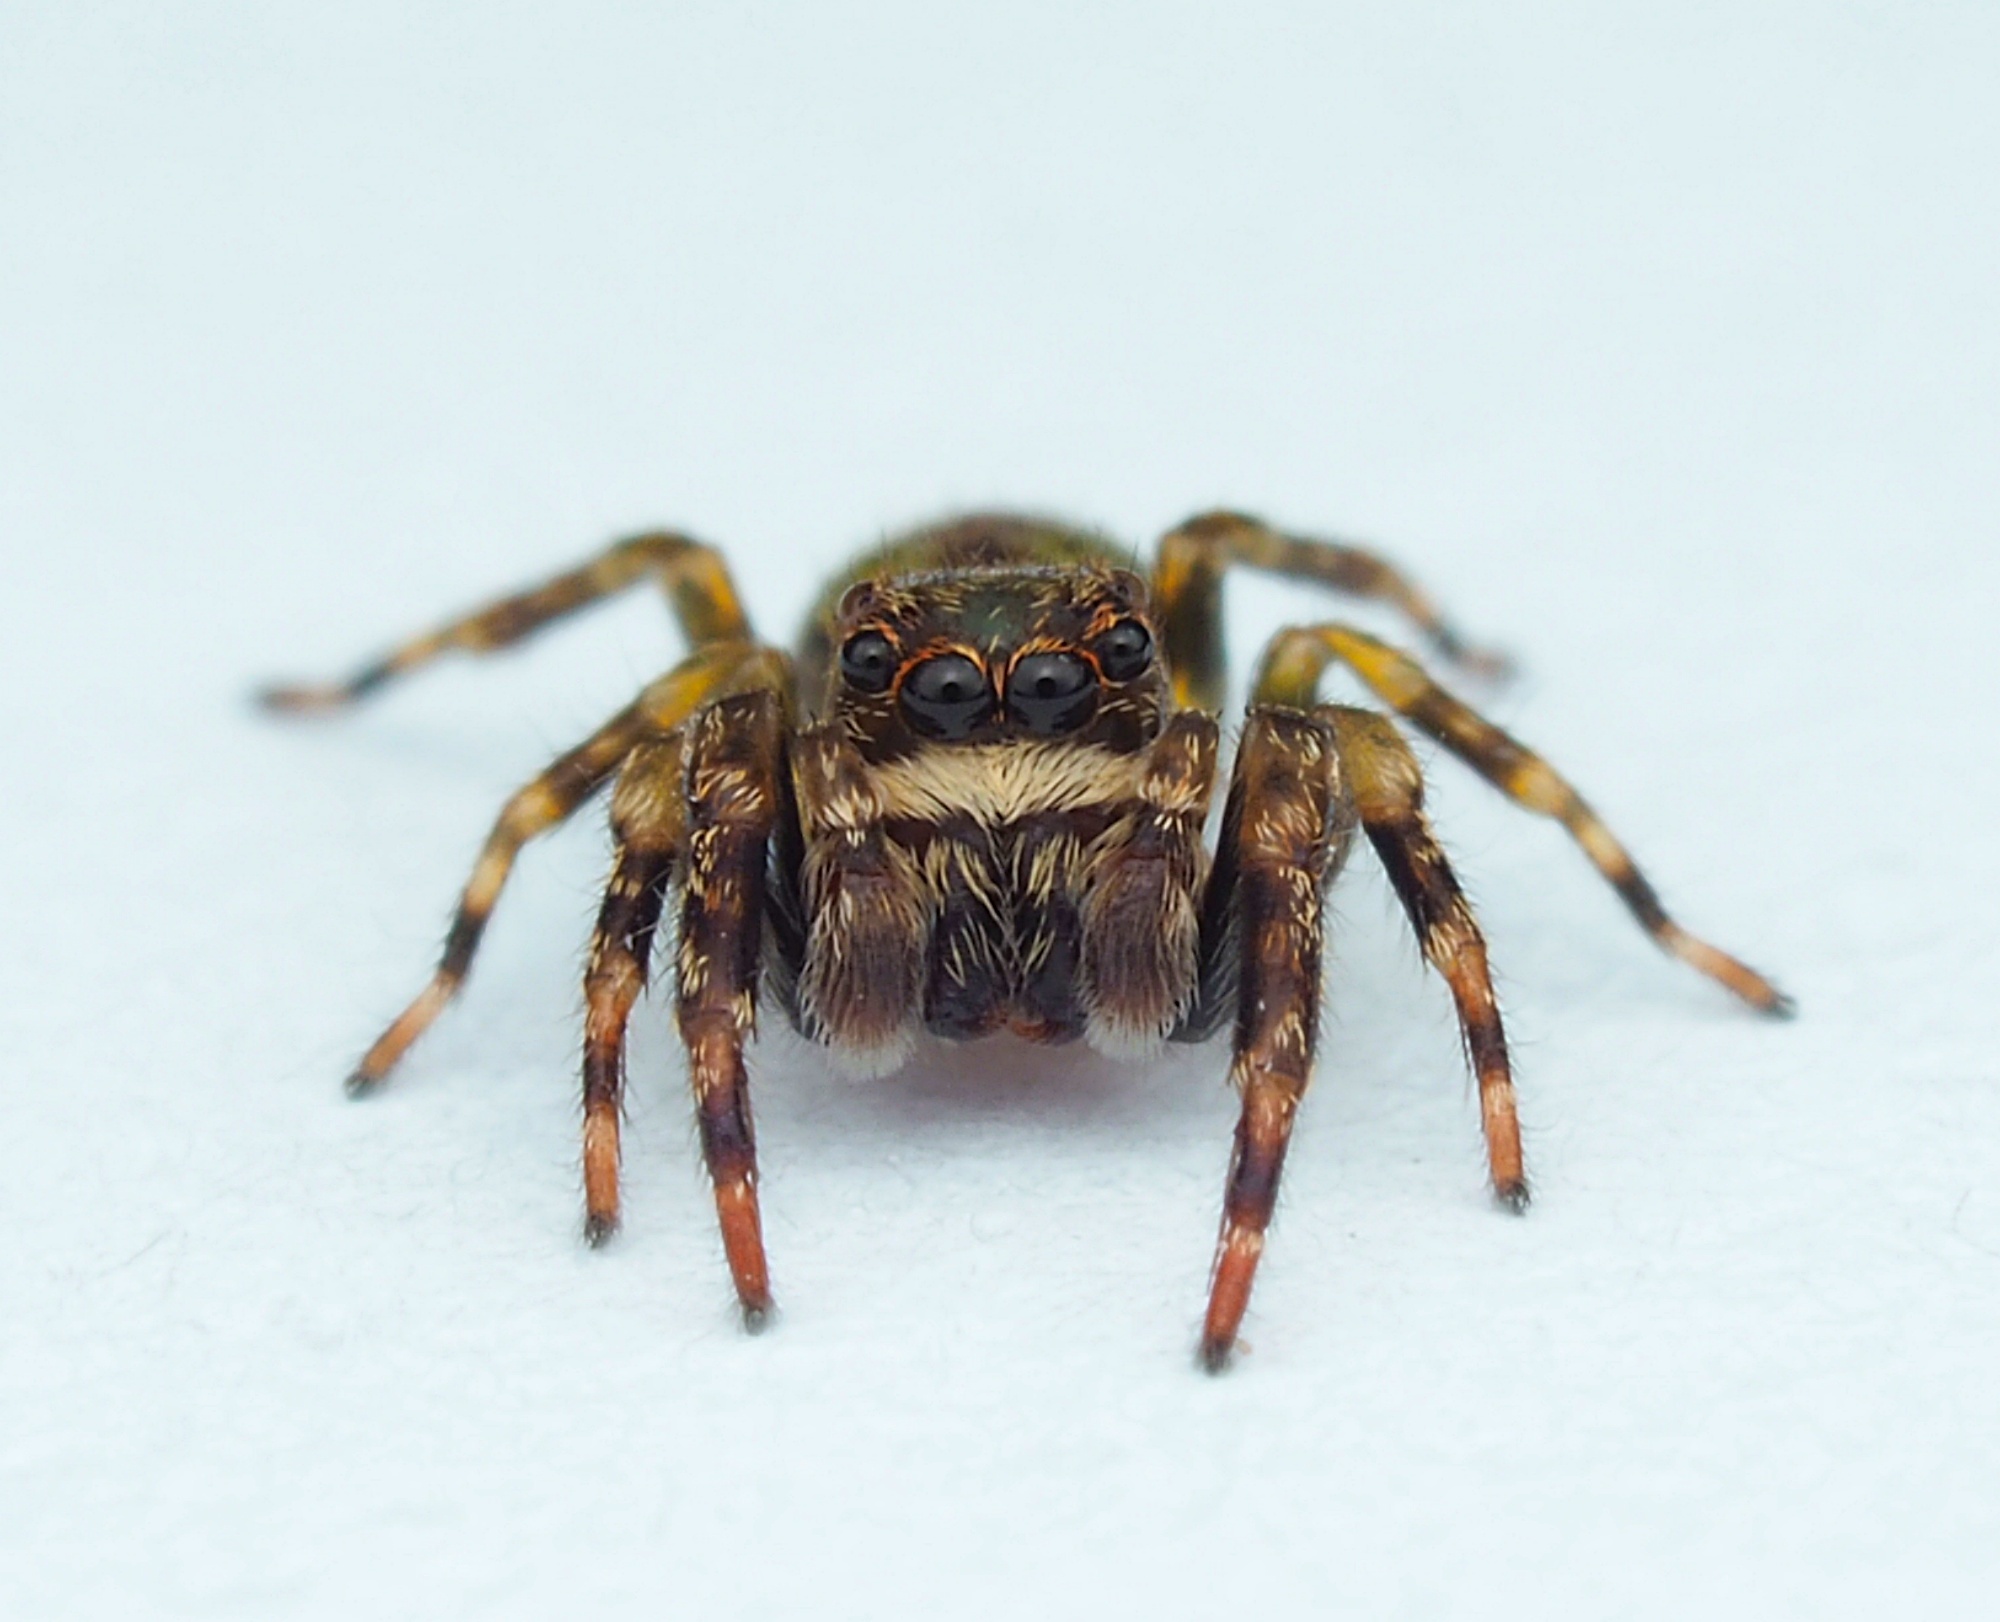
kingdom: Animalia
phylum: Arthropoda
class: Arachnida
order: Araneae
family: Salticidae
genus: Hinewaia
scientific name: Hinewaia embolica
